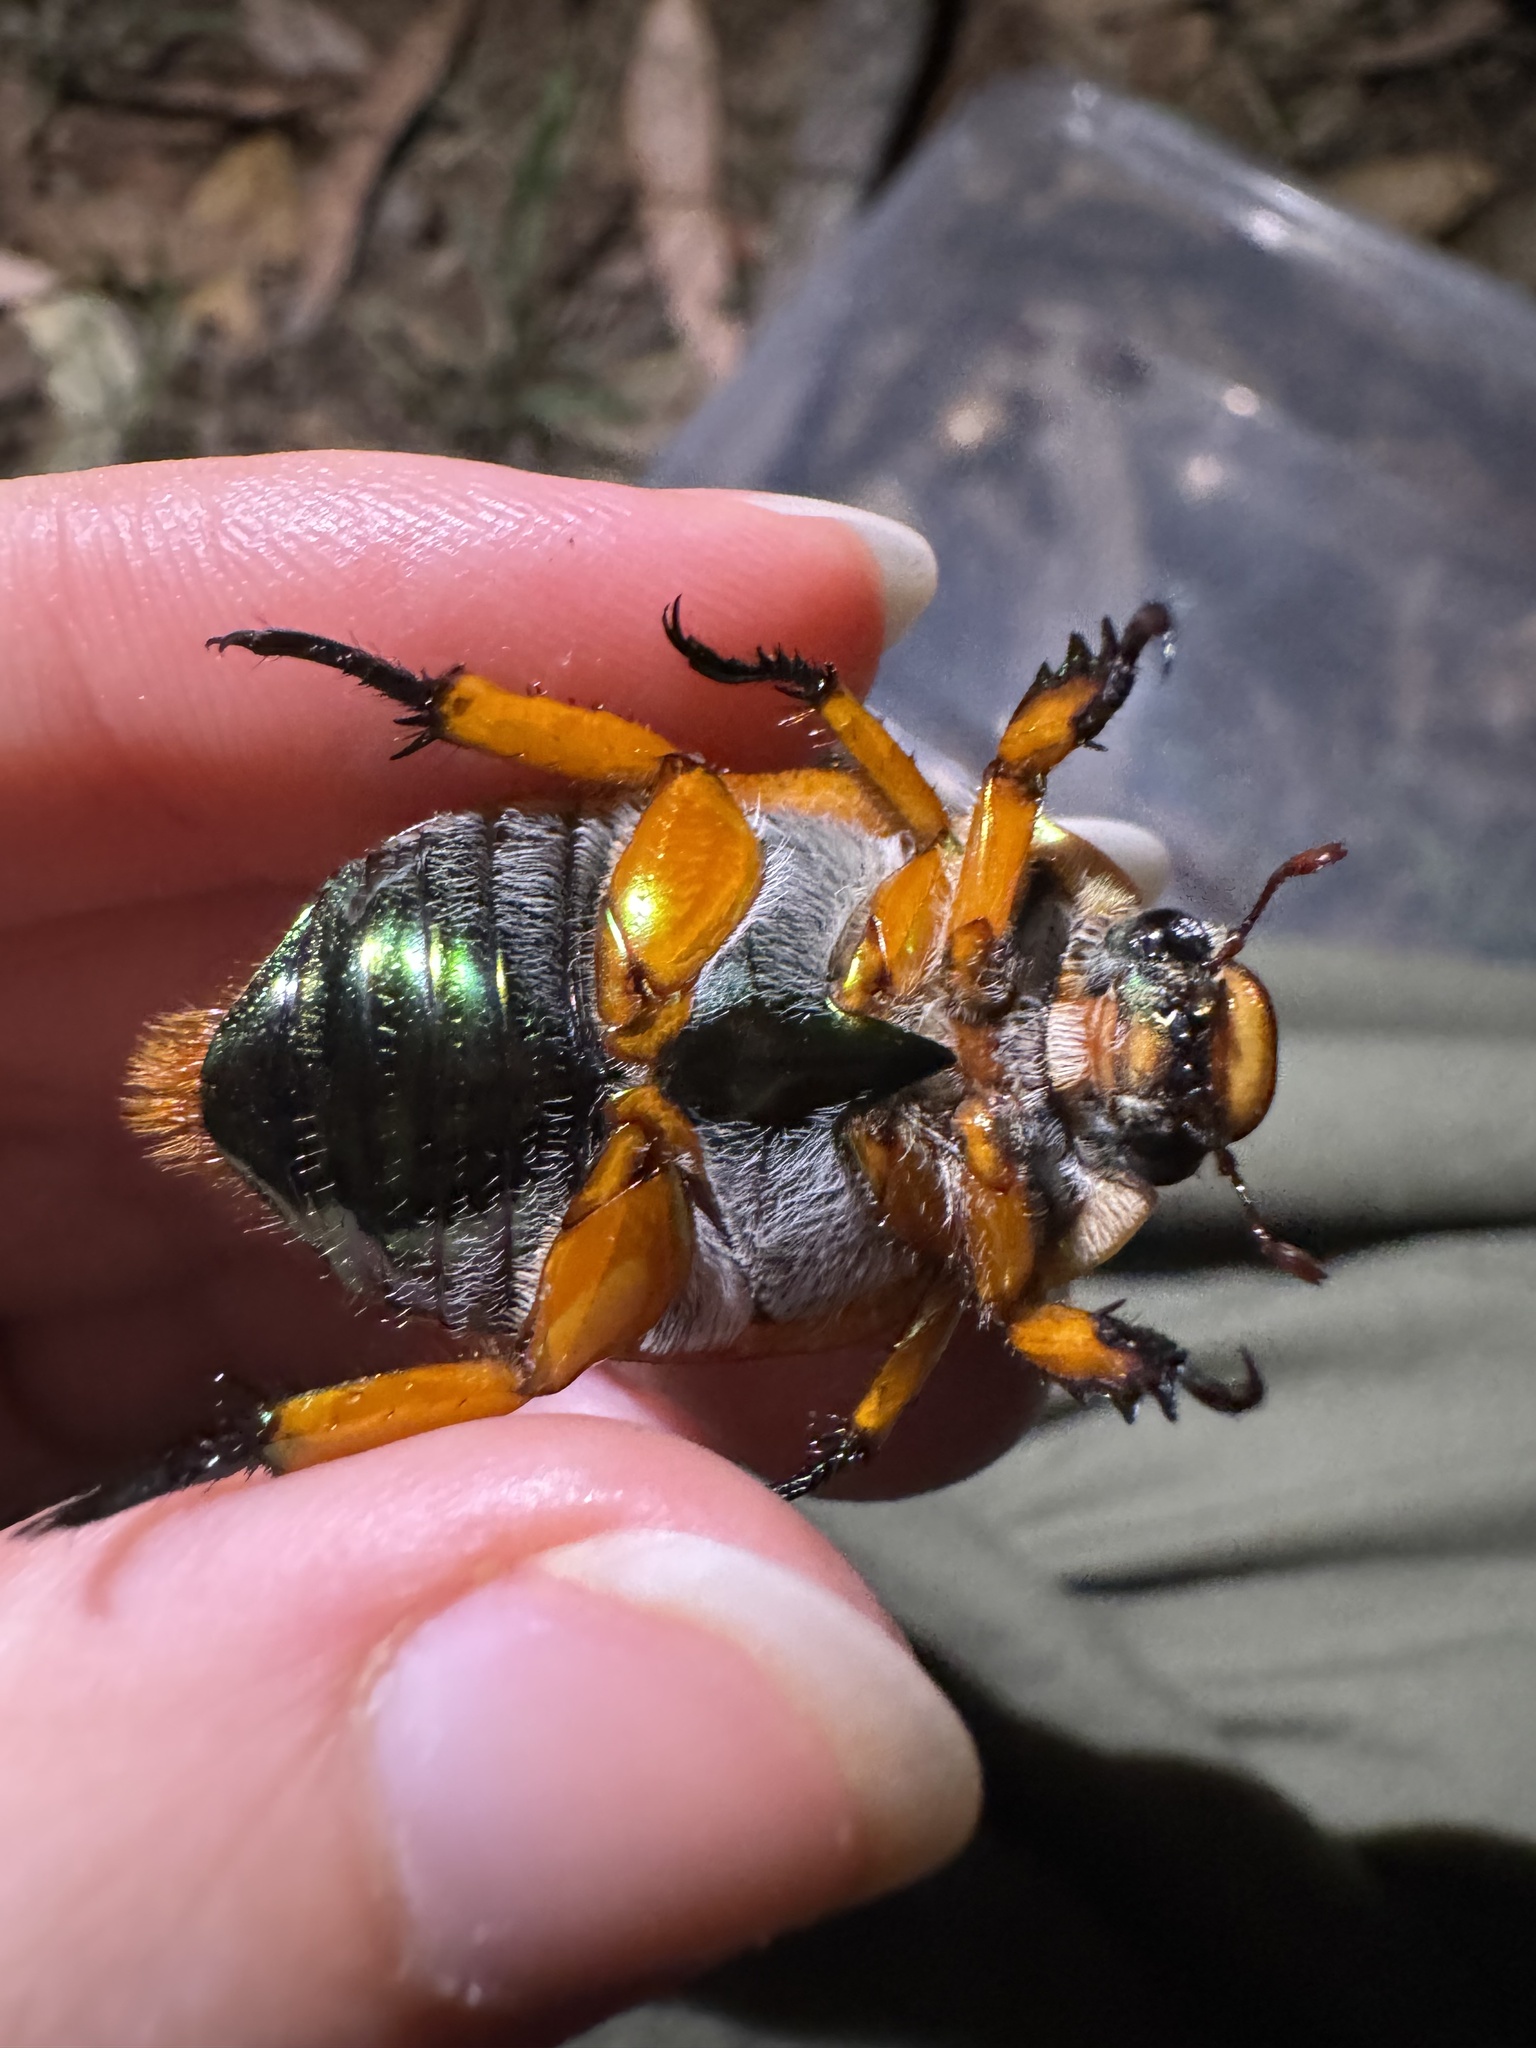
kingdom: Animalia
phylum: Arthropoda
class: Insecta
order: Coleoptera
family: Scarabaeidae
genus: Anoplognathus
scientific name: Anoplognathus viriditarsis
